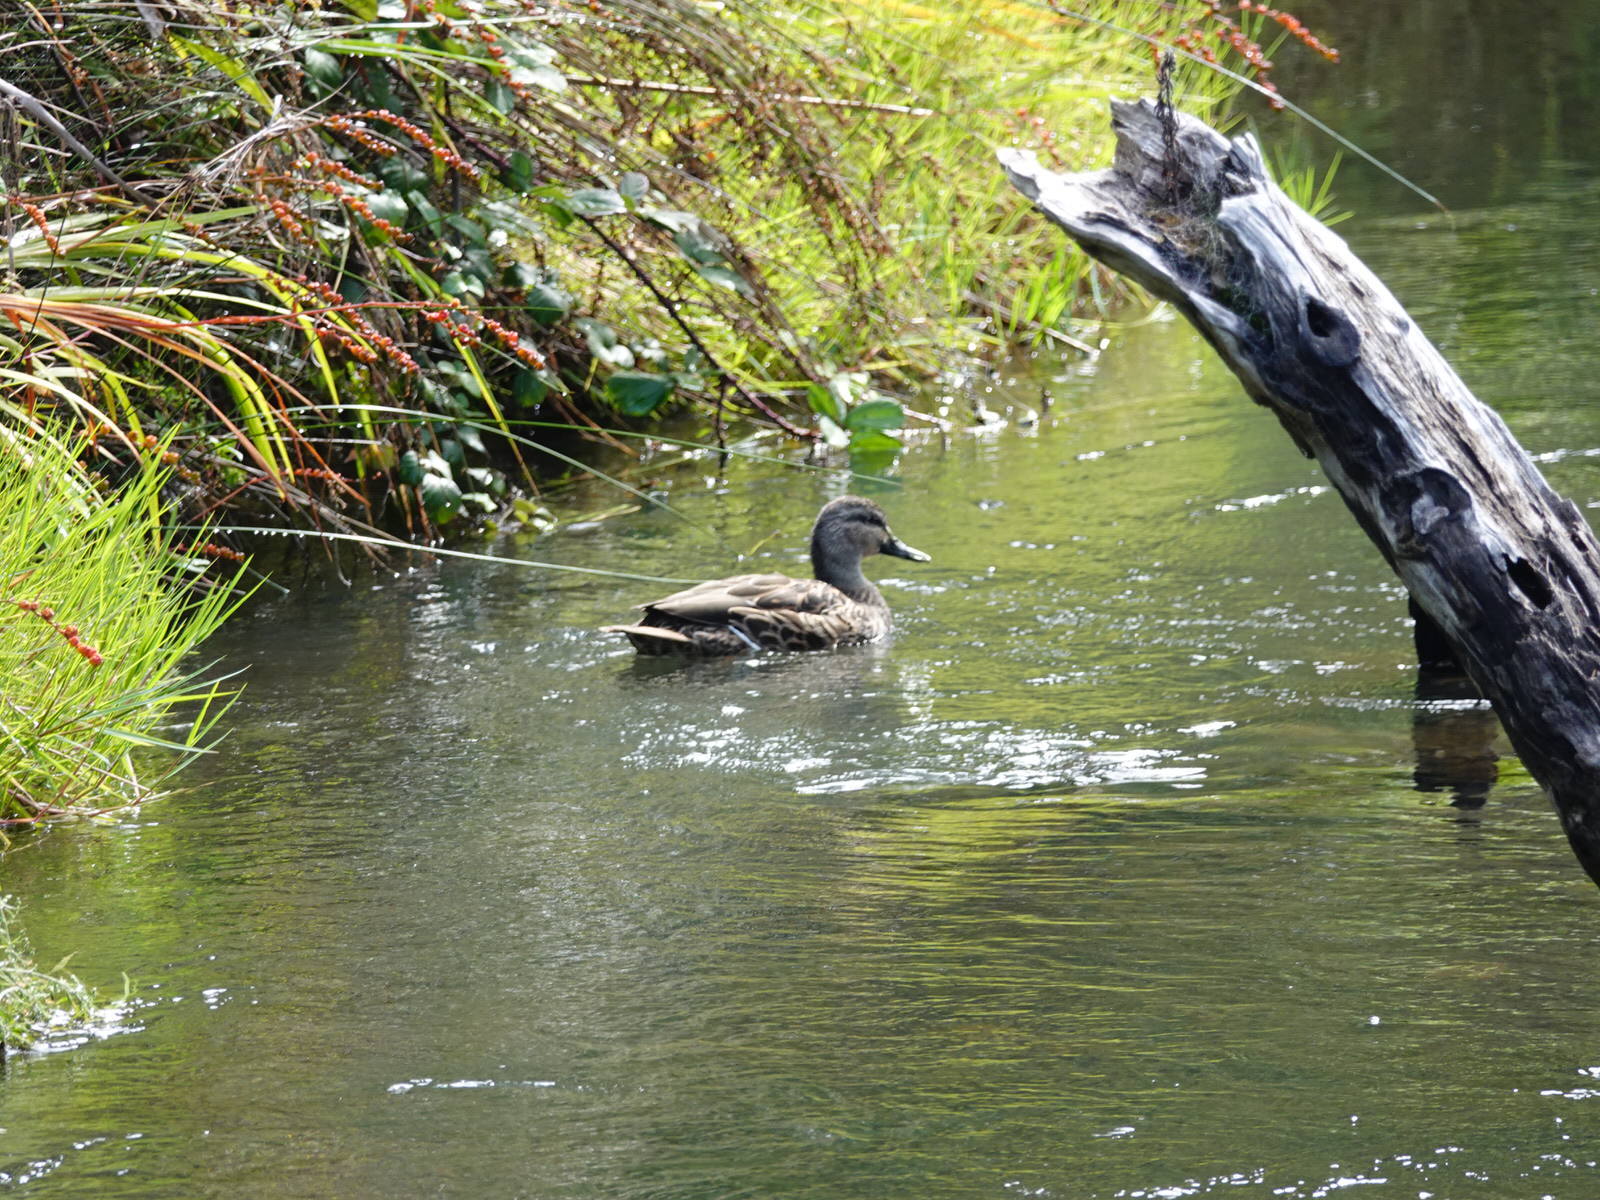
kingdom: Animalia
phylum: Chordata
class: Aves
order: Anseriformes
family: Anatidae
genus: Anas
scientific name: Anas
